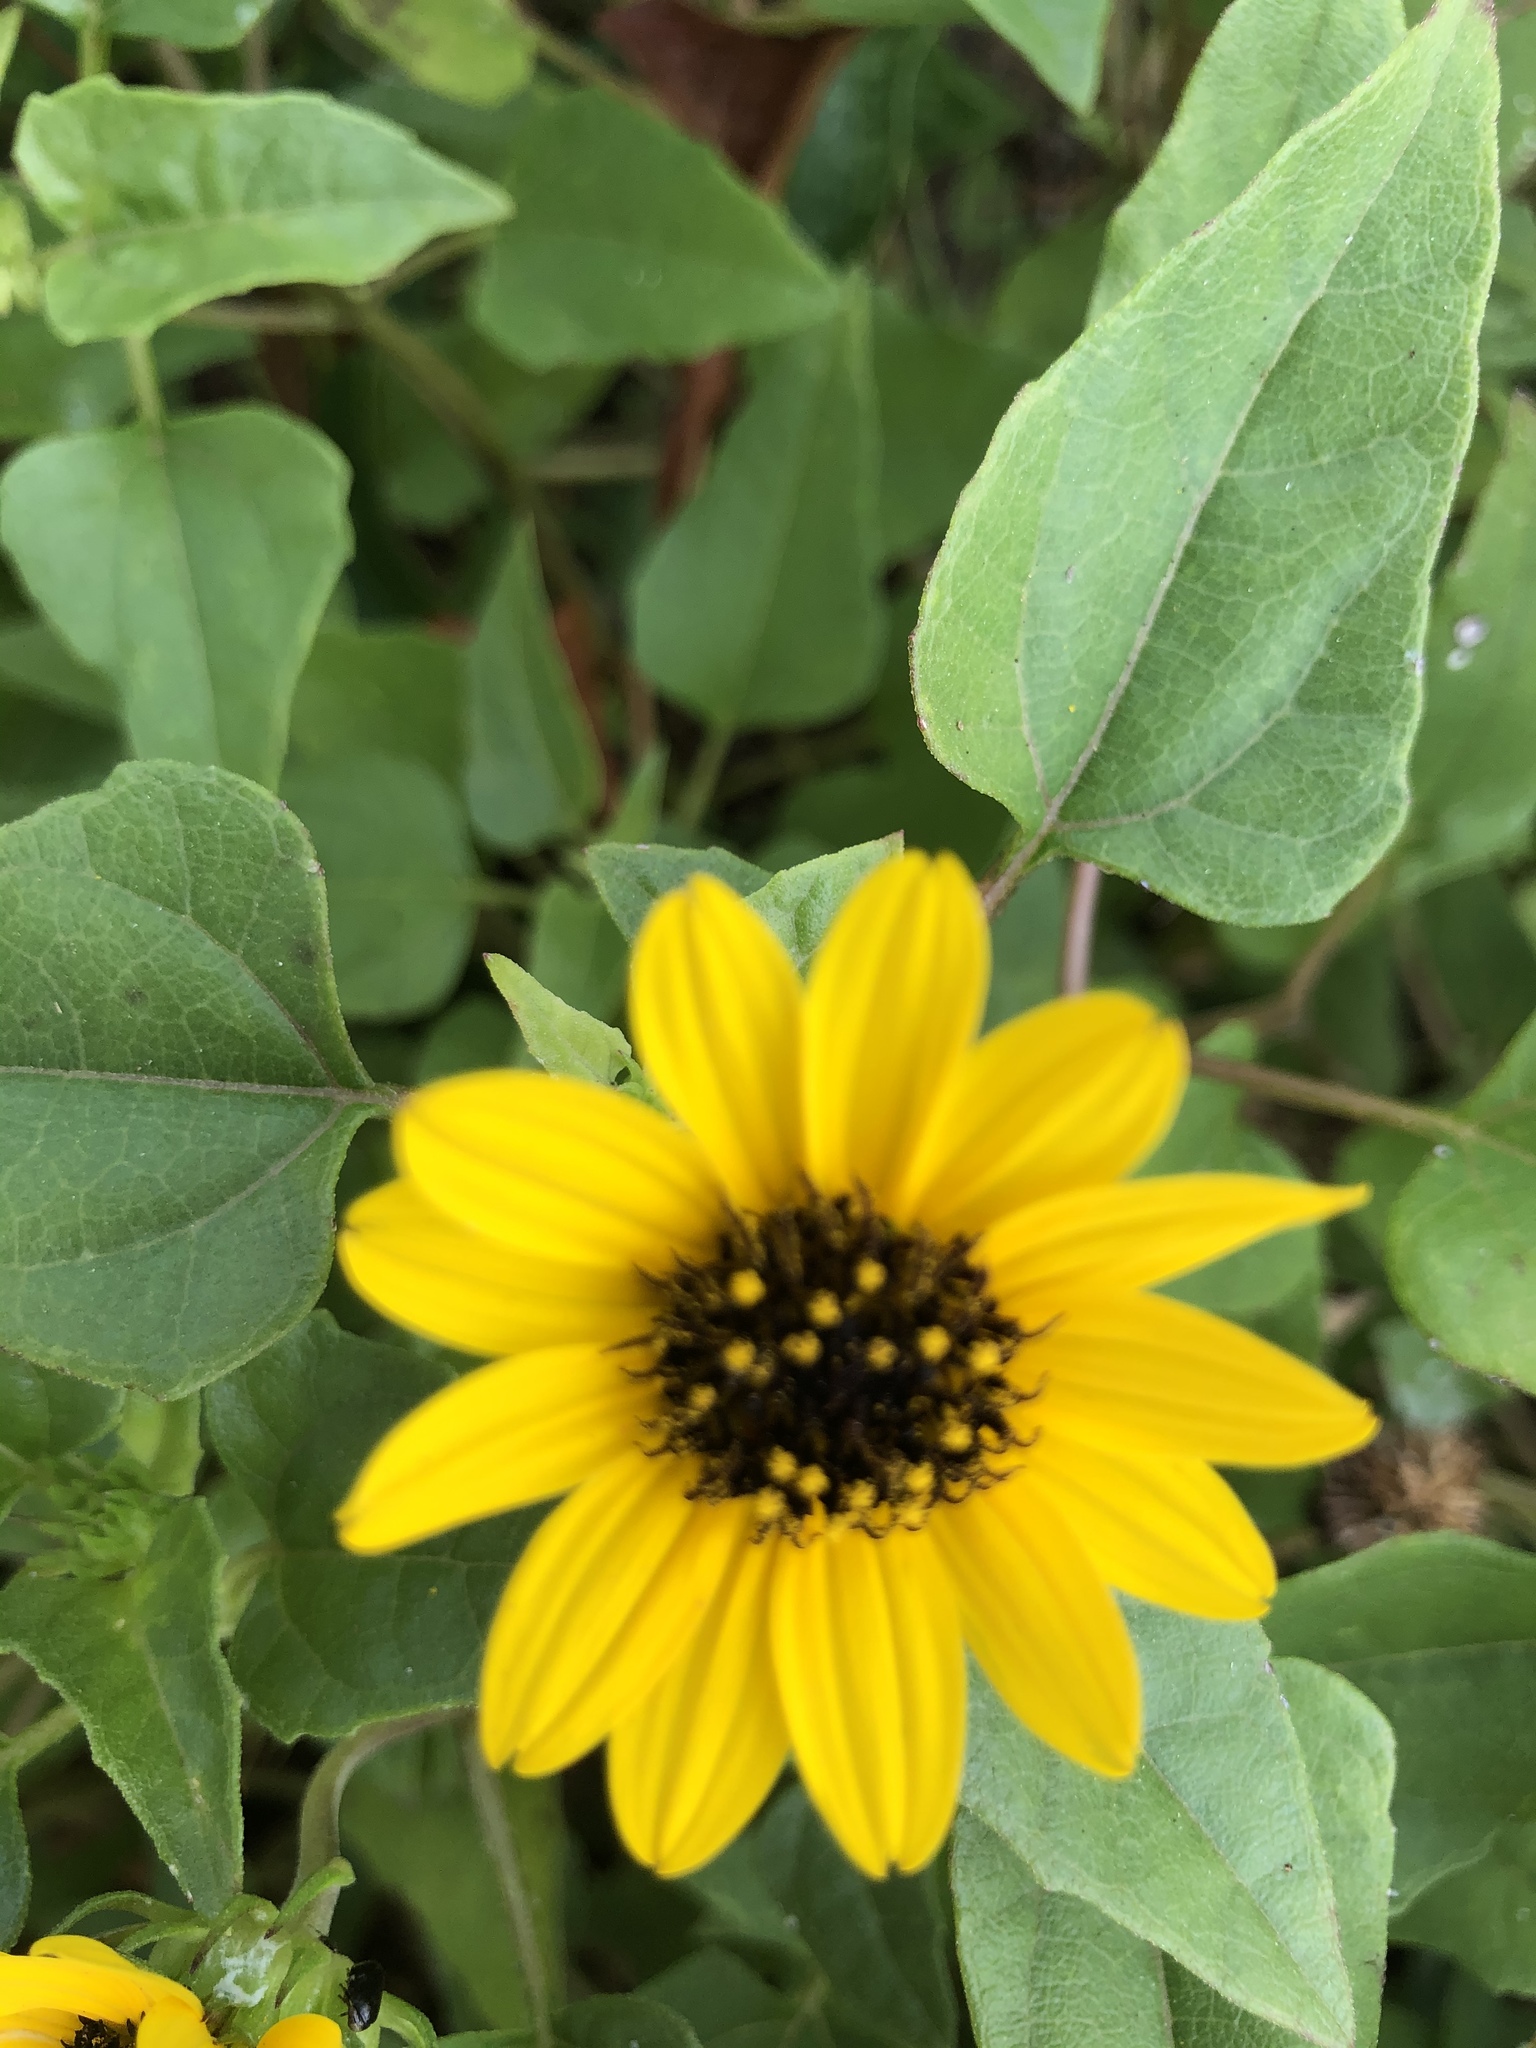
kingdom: Plantae
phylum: Tracheophyta
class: Magnoliopsida
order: Asterales
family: Asteraceae
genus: Helianthus
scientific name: Helianthus debilis
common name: Weak sunflower
